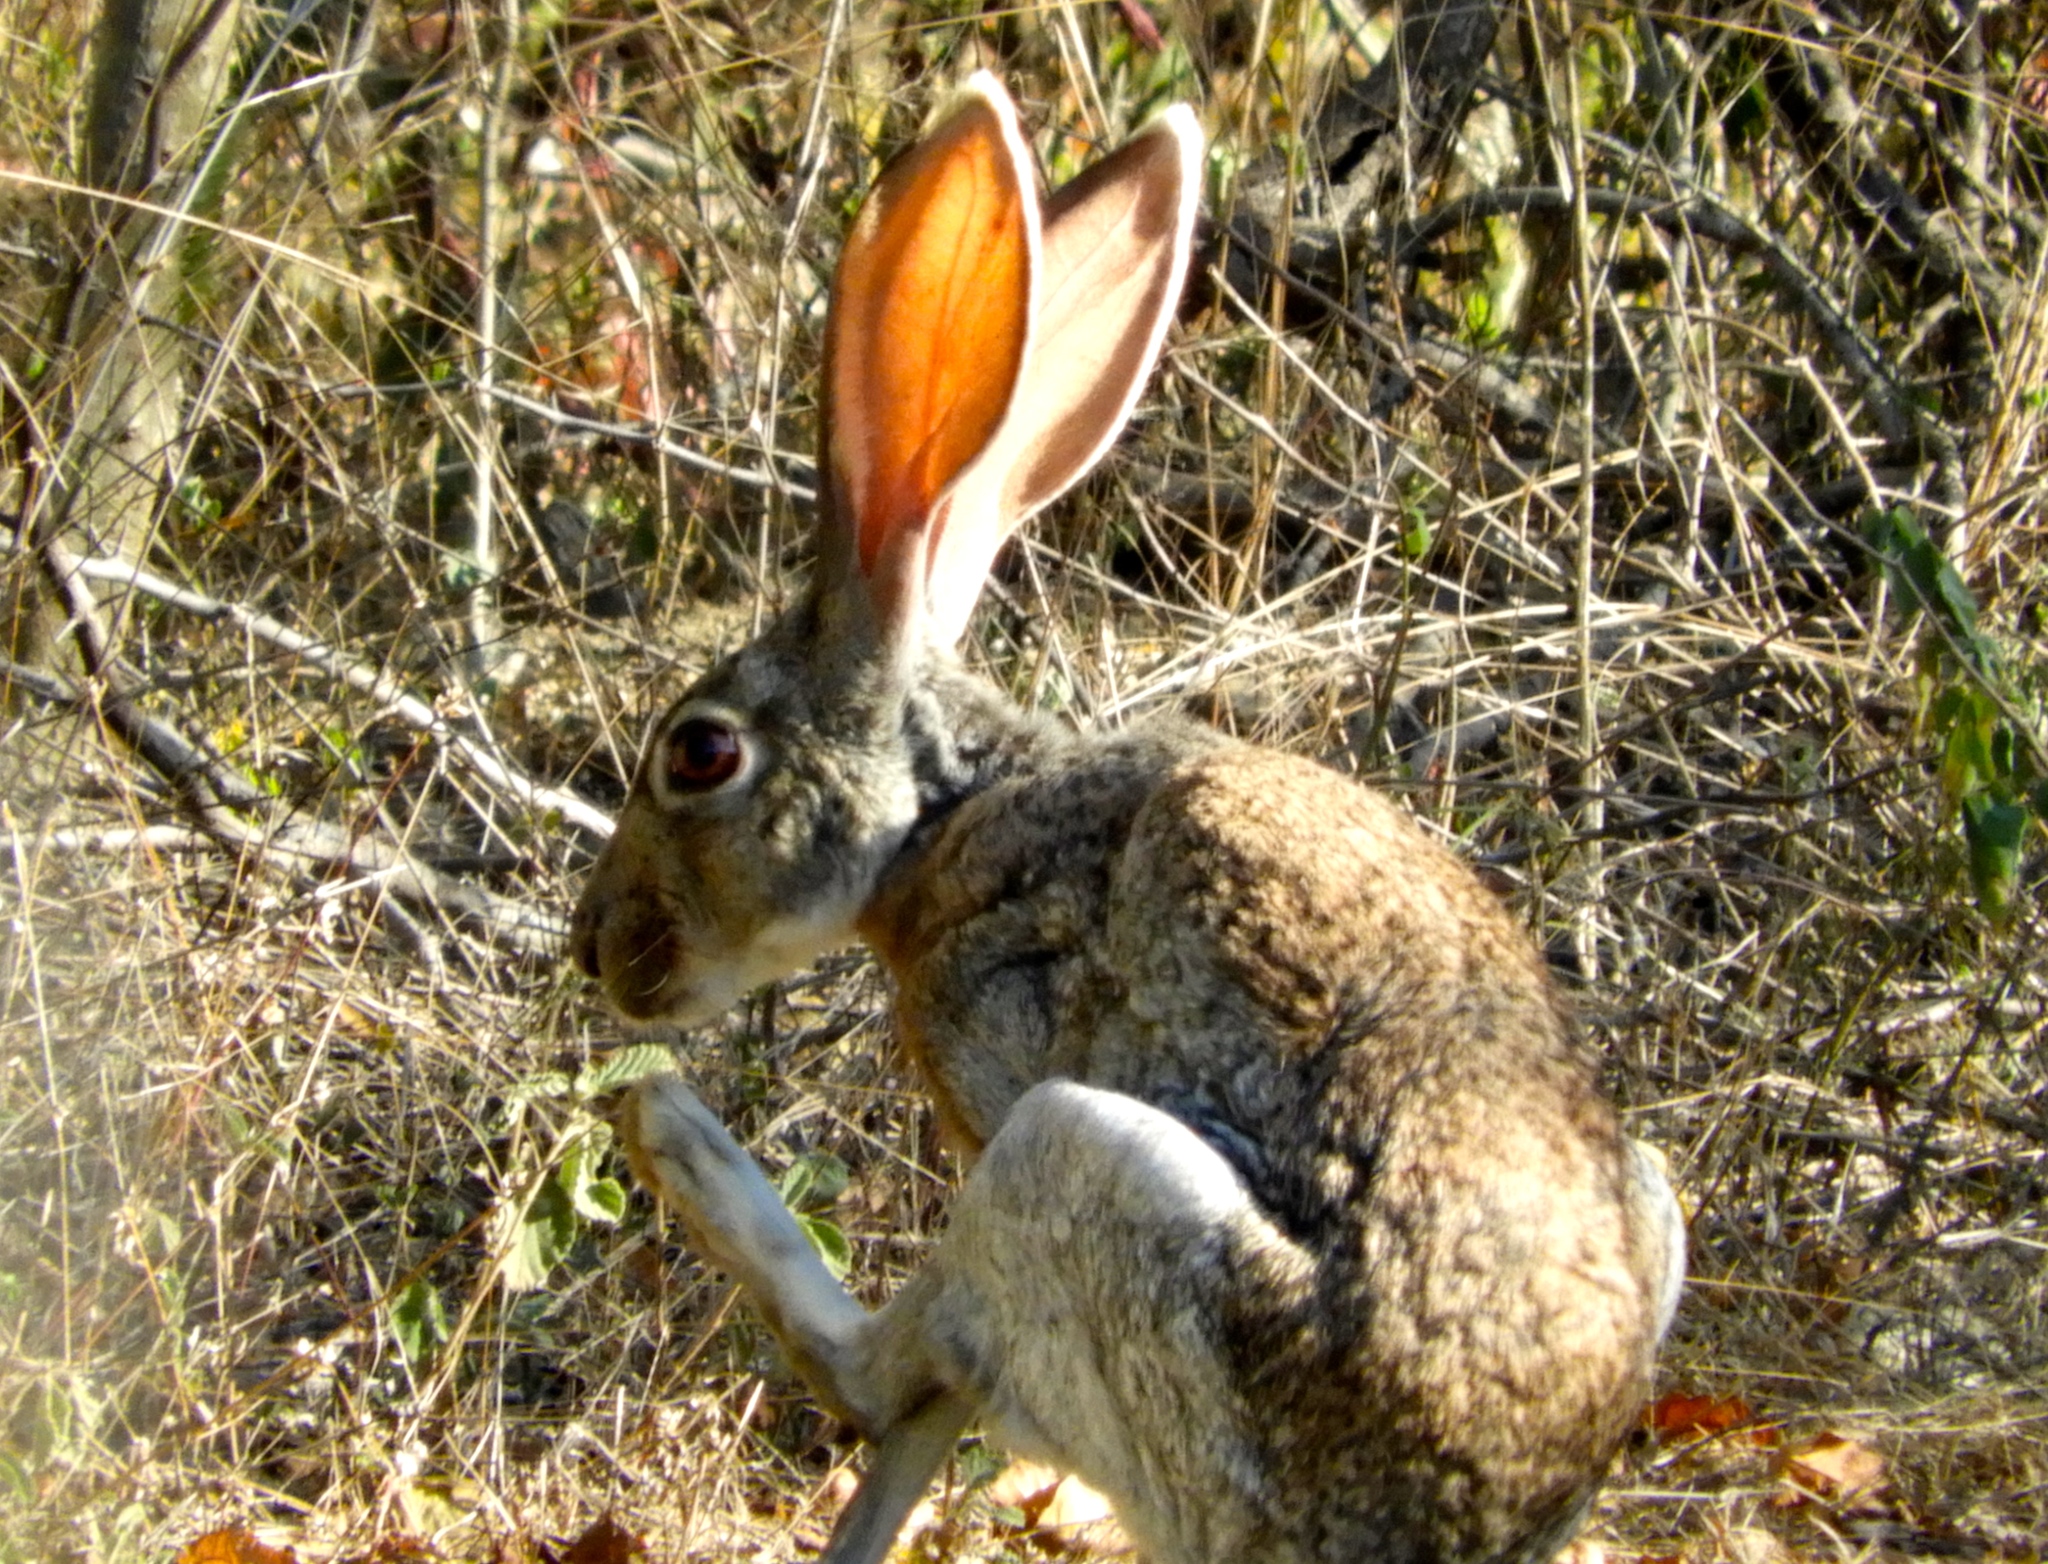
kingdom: Animalia
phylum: Chordata
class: Mammalia
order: Lagomorpha
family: Leporidae
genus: Lepus
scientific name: Lepus alleni
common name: Antelope jackrabbit
